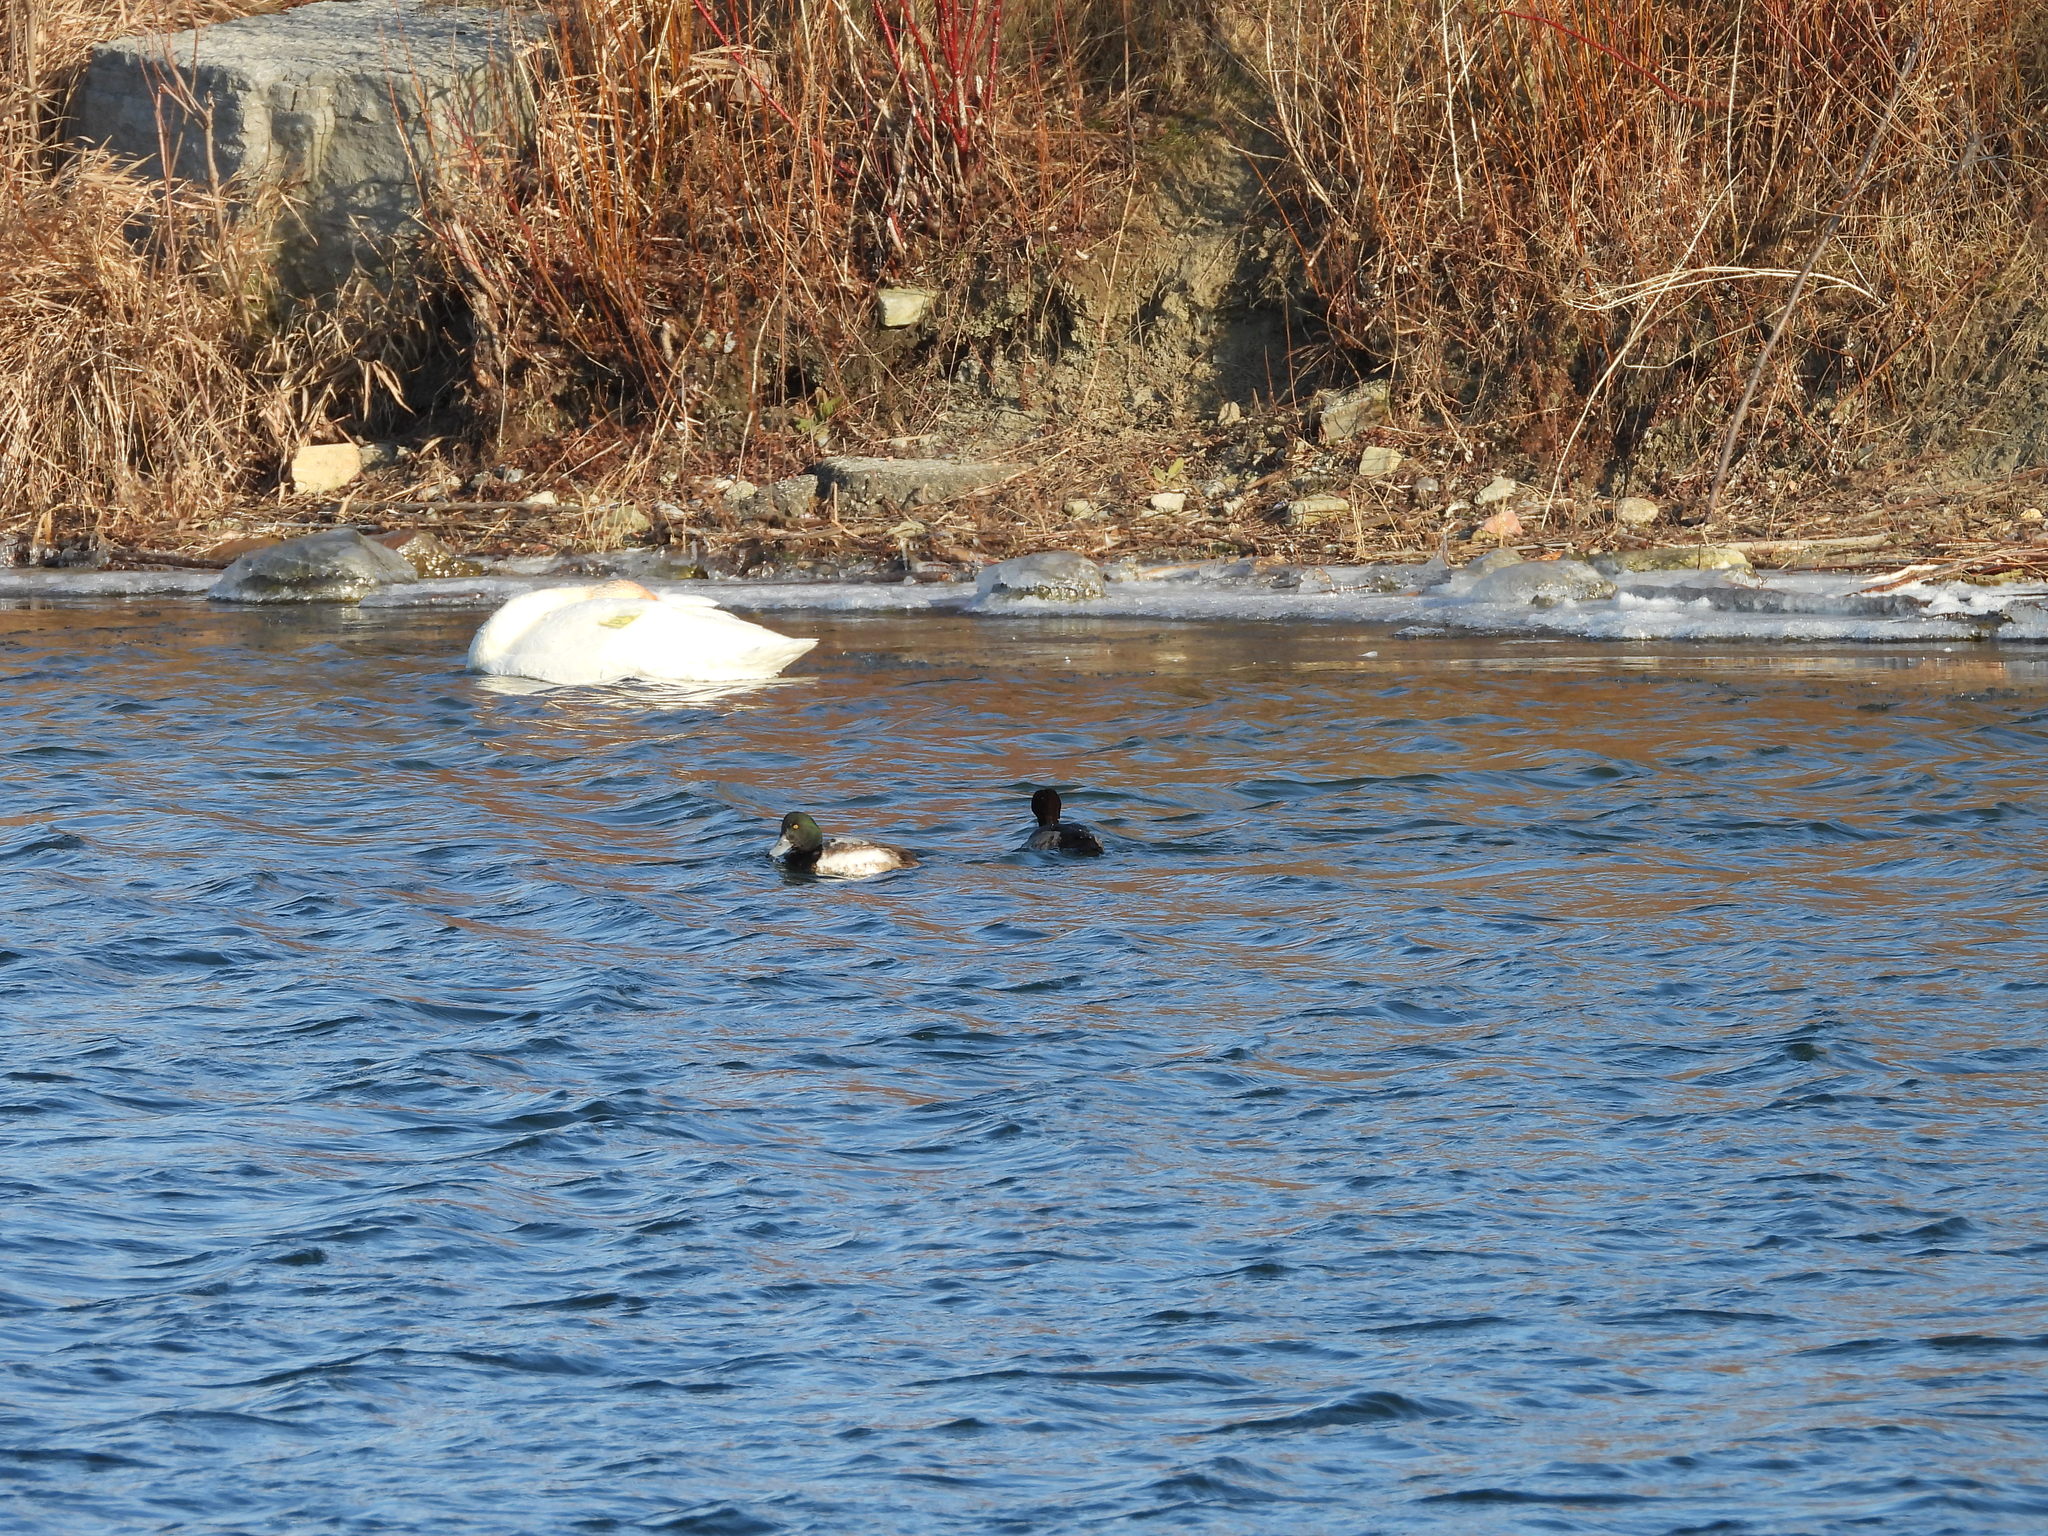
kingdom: Animalia
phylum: Chordata
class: Aves
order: Anseriformes
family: Anatidae
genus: Aythya
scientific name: Aythya marila
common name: Greater scaup
